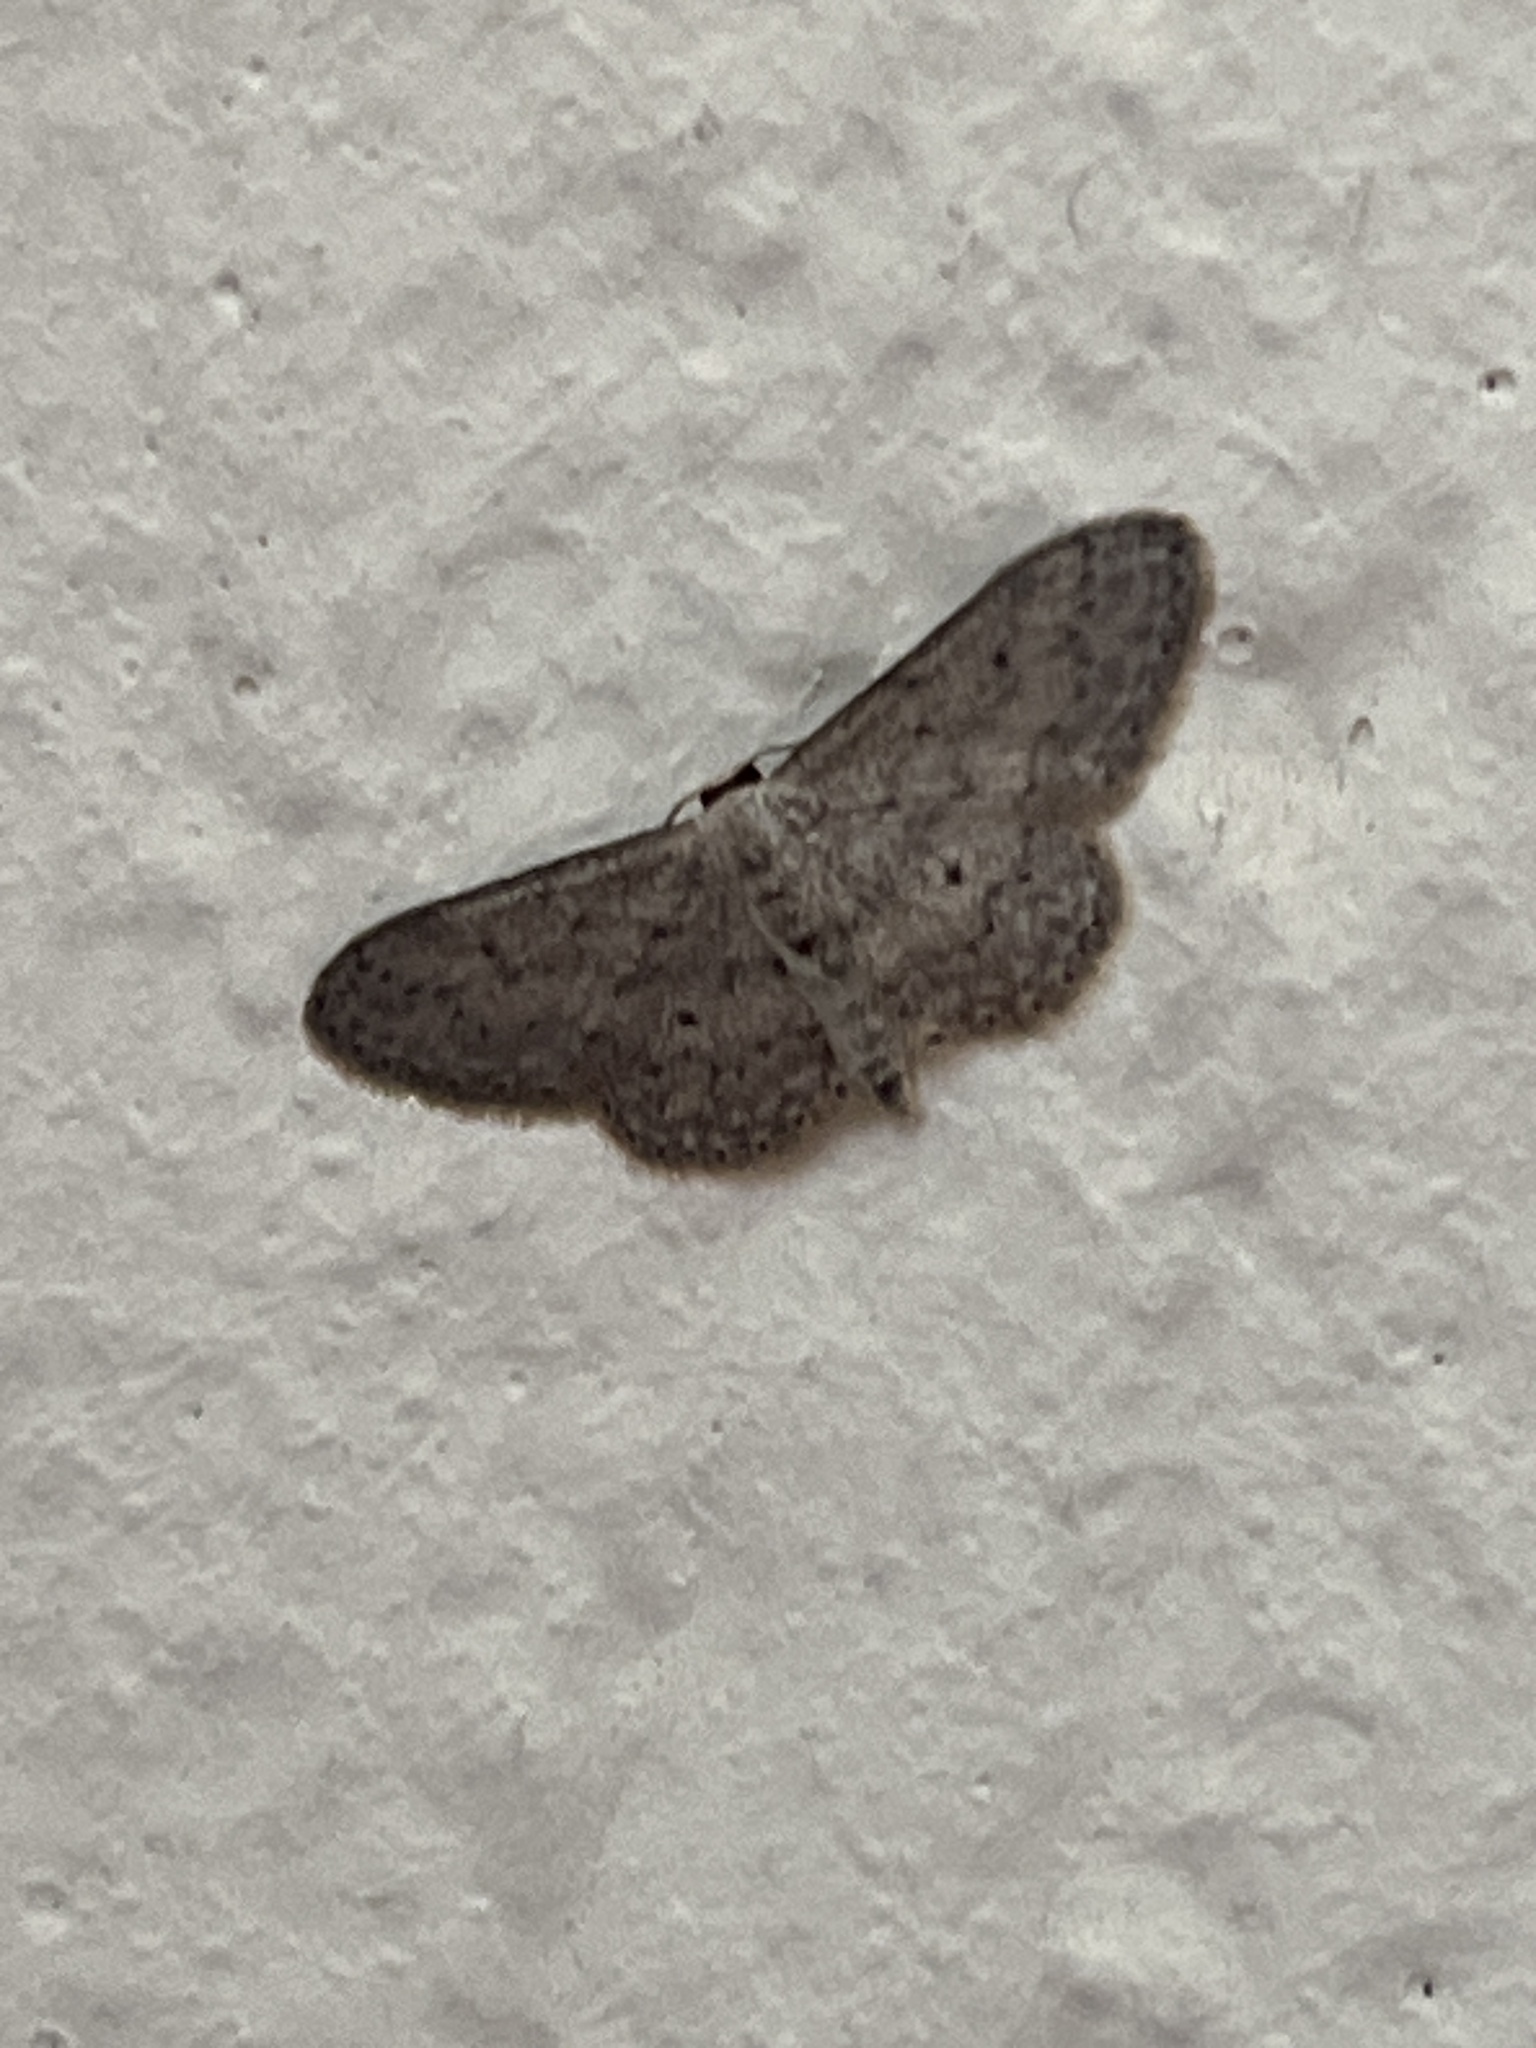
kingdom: Animalia
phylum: Arthropoda
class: Insecta
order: Lepidoptera
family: Geometridae
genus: Idaea
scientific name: Idaea seriata
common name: Small dusty wave
